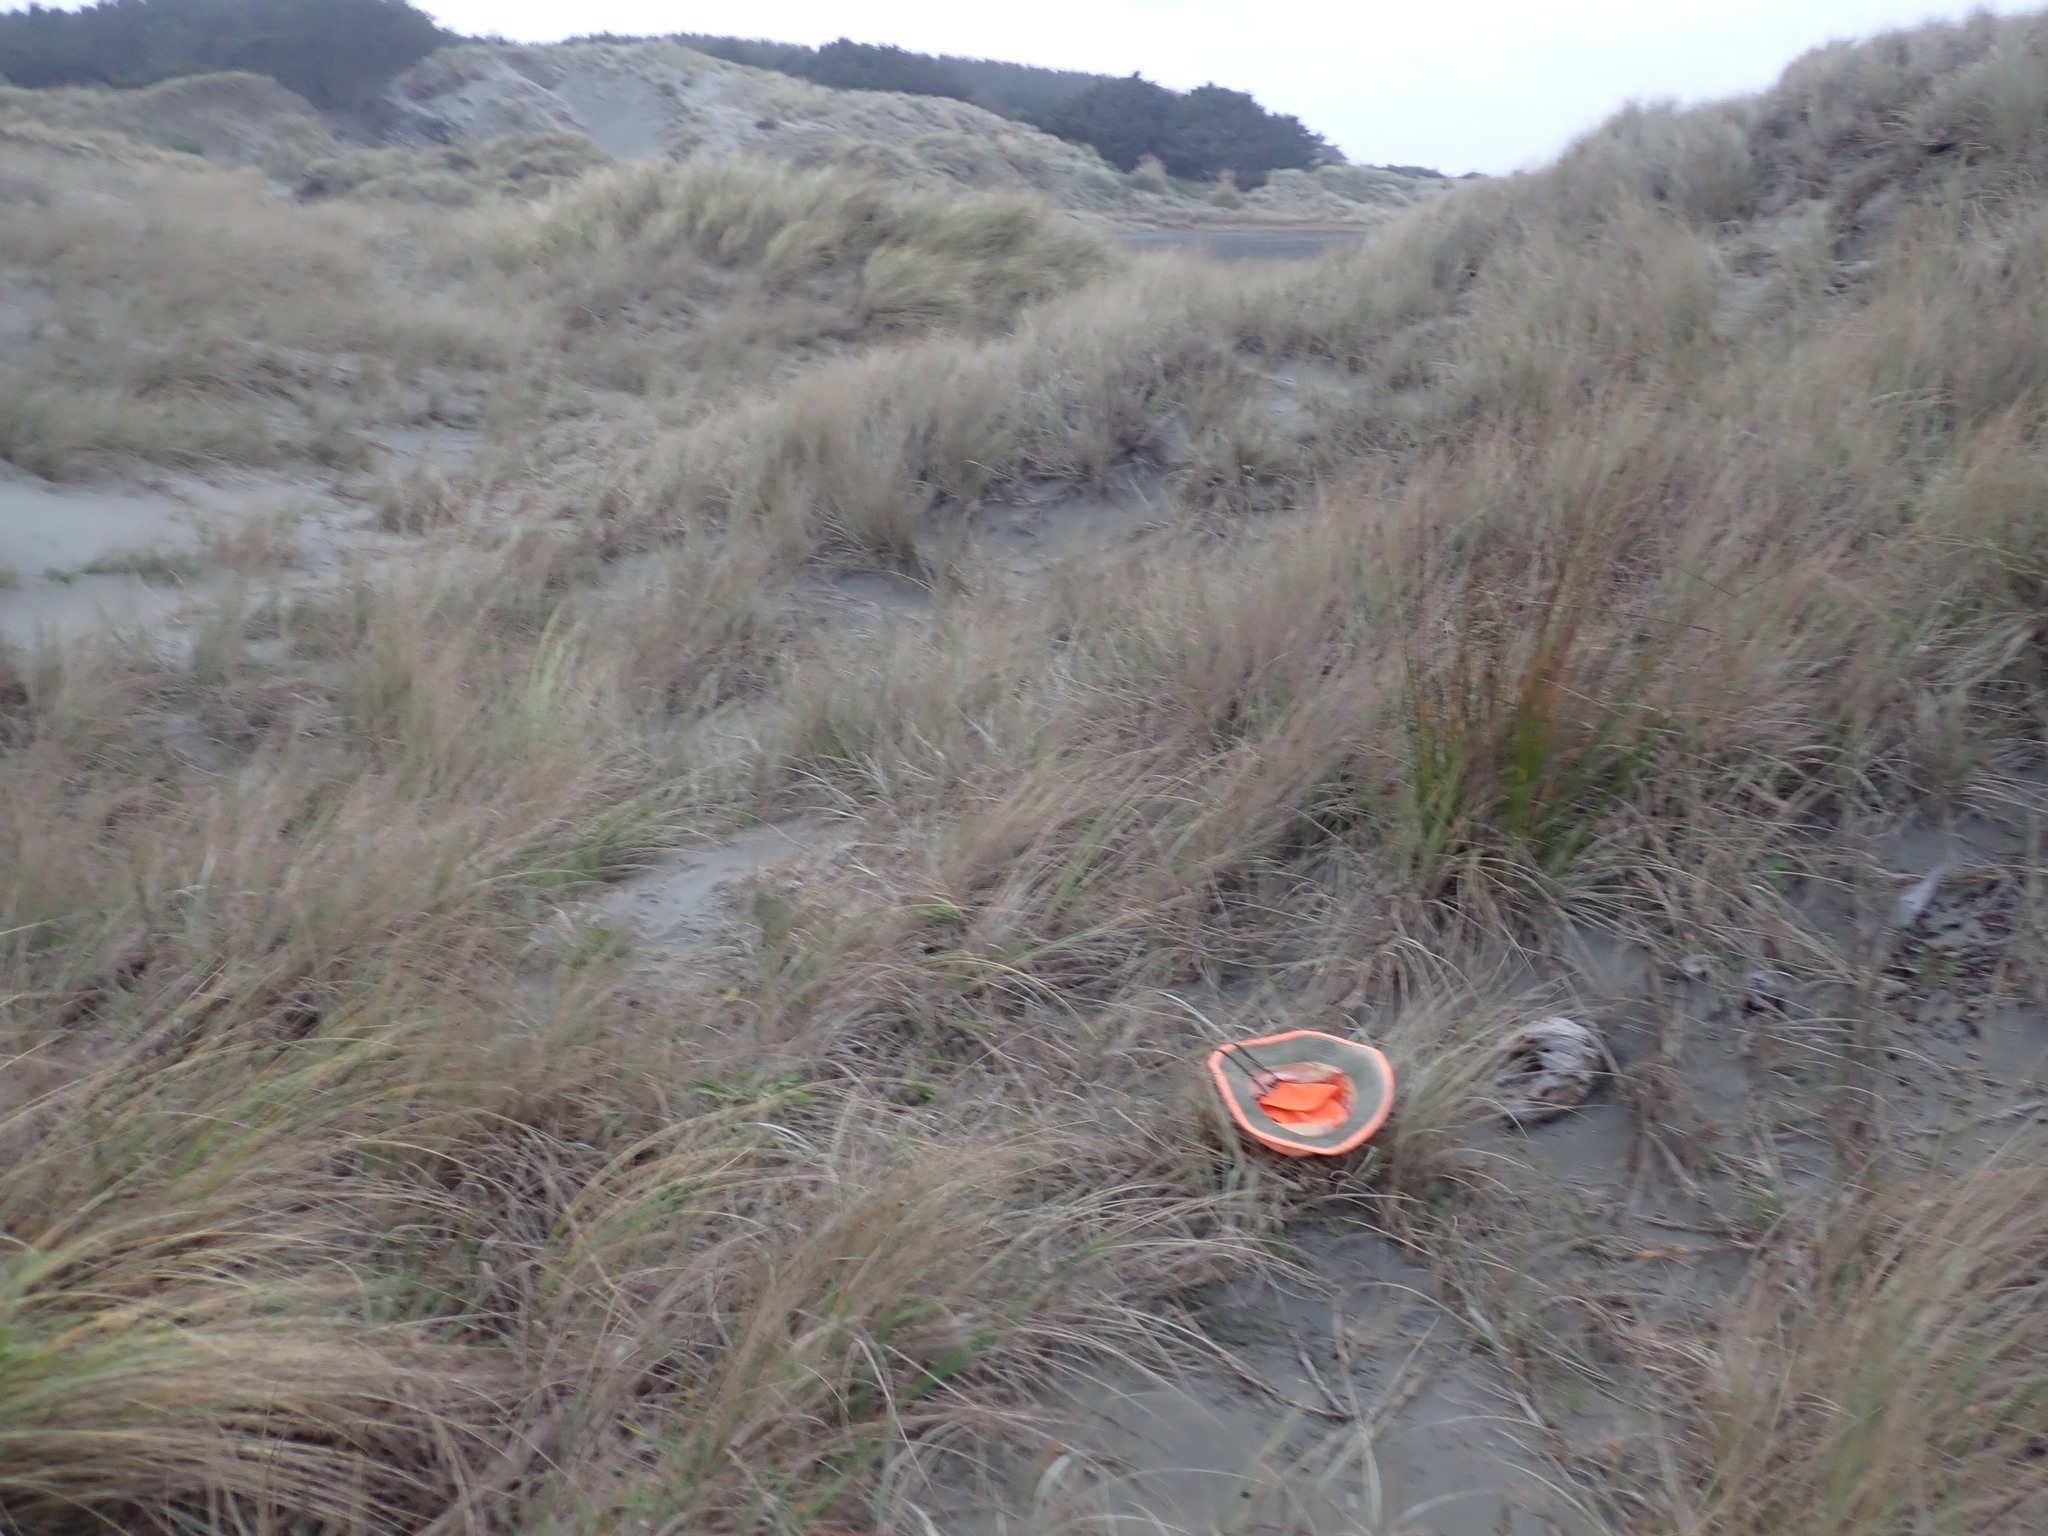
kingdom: Plantae
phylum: Tracheophyta
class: Magnoliopsida
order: Malvales
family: Thymelaeaceae
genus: Pimelea
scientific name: Pimelea villosa
